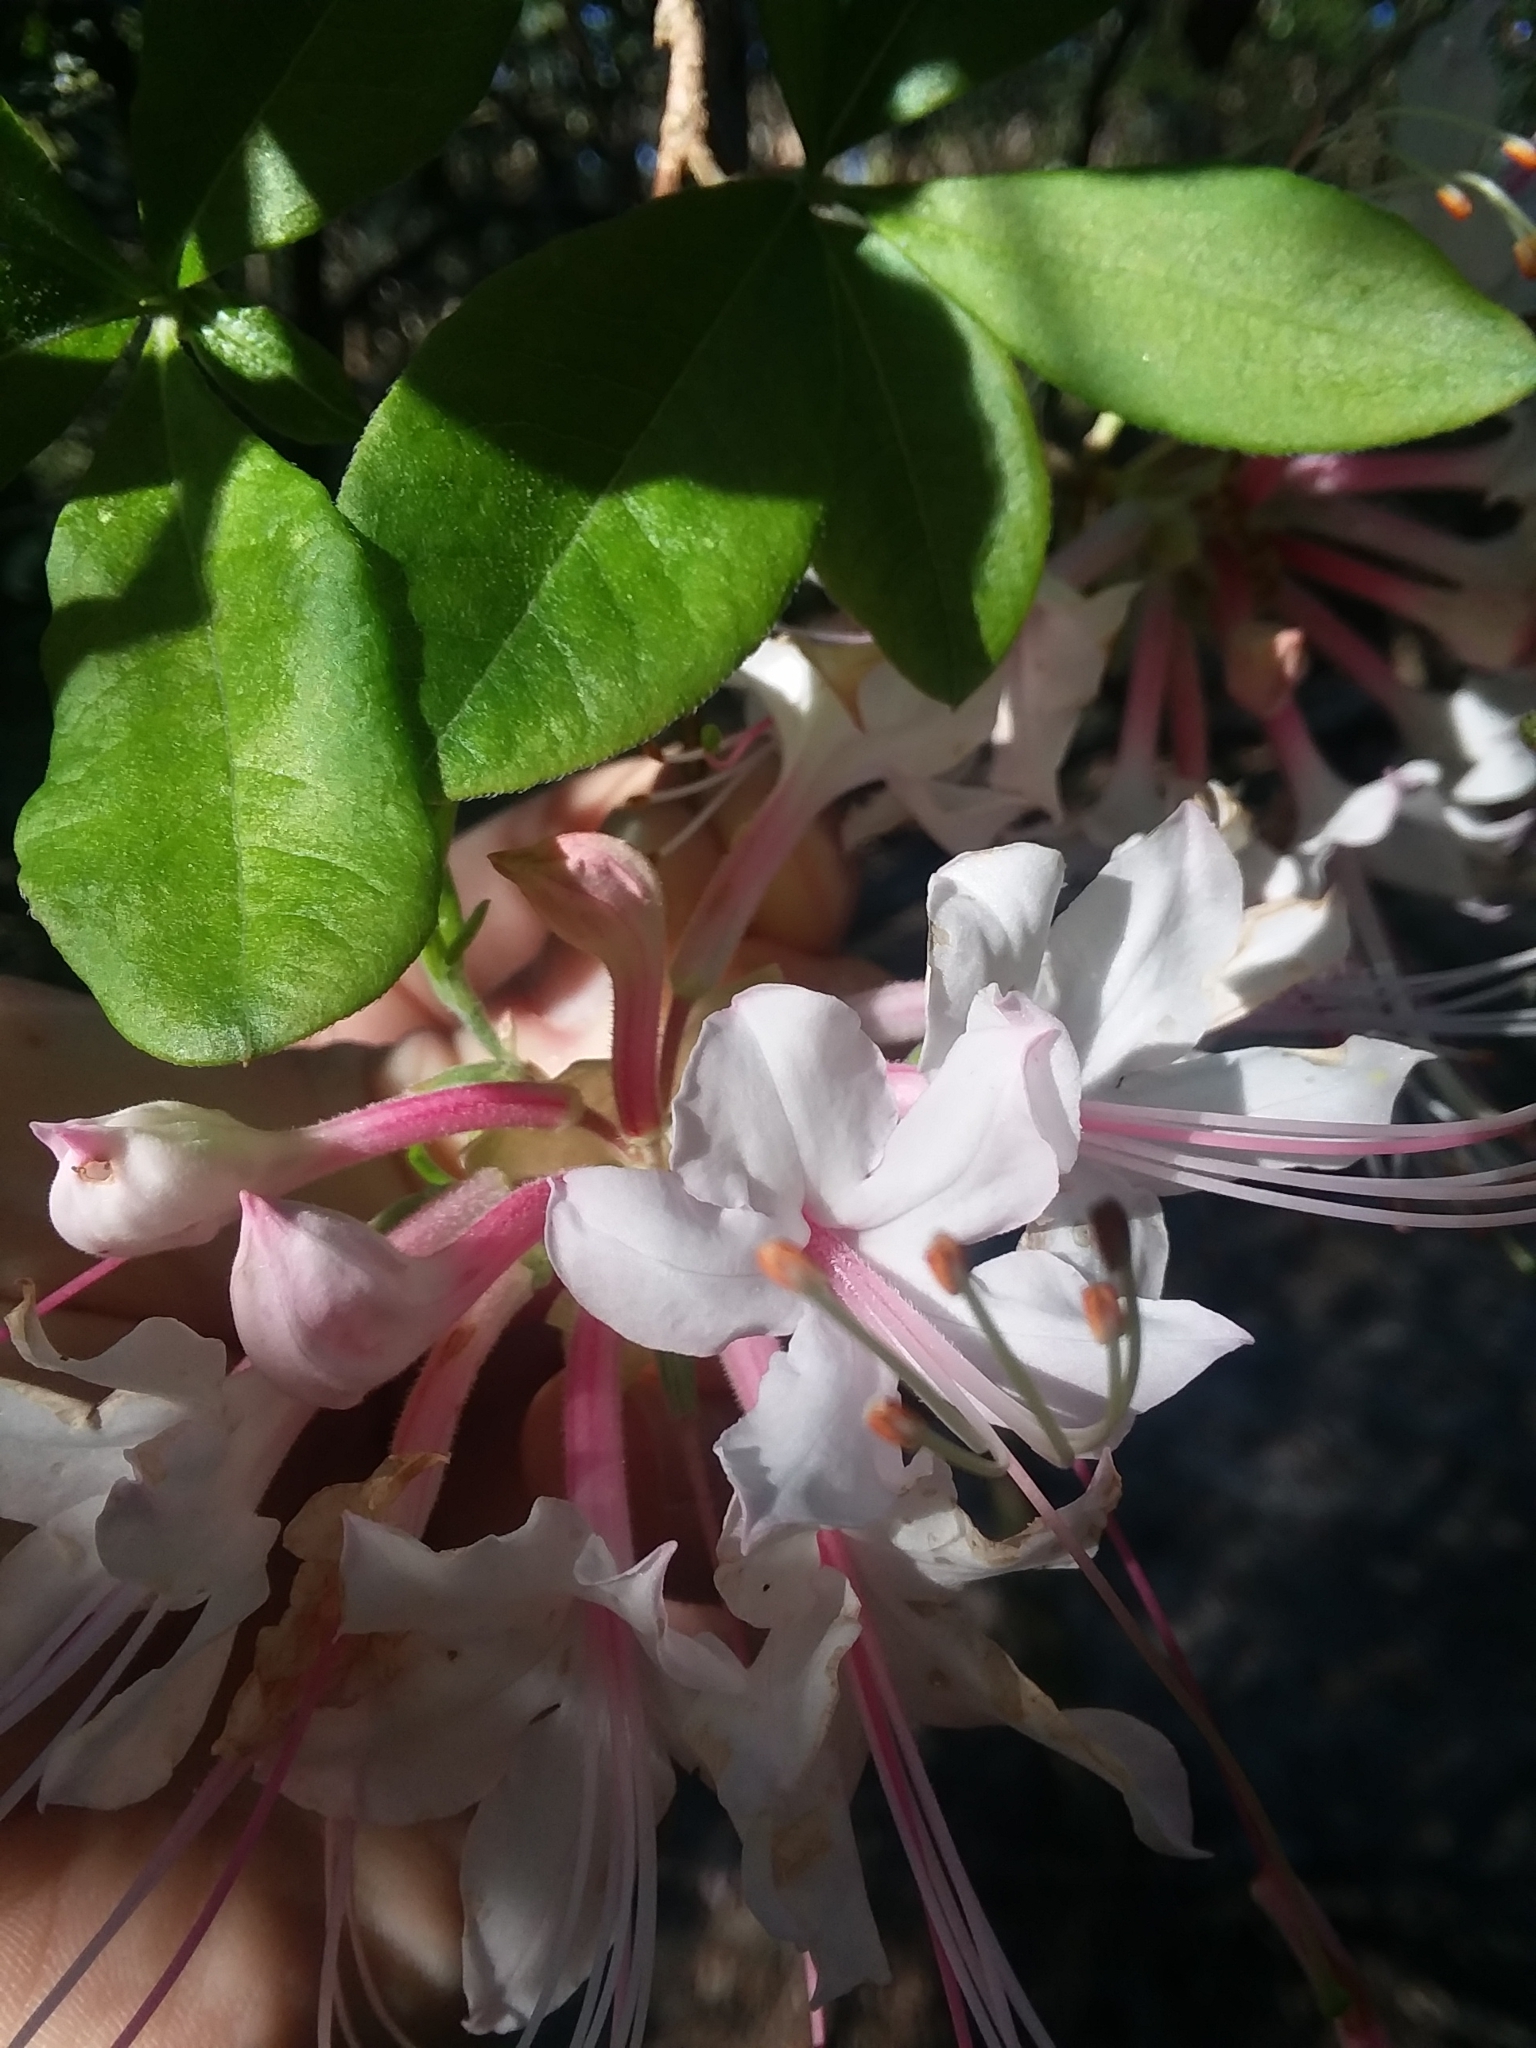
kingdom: Plantae
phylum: Tracheophyta
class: Magnoliopsida
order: Ericales
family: Ericaceae
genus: Rhododendron
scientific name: Rhododendron canescens
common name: Mountain azalea
